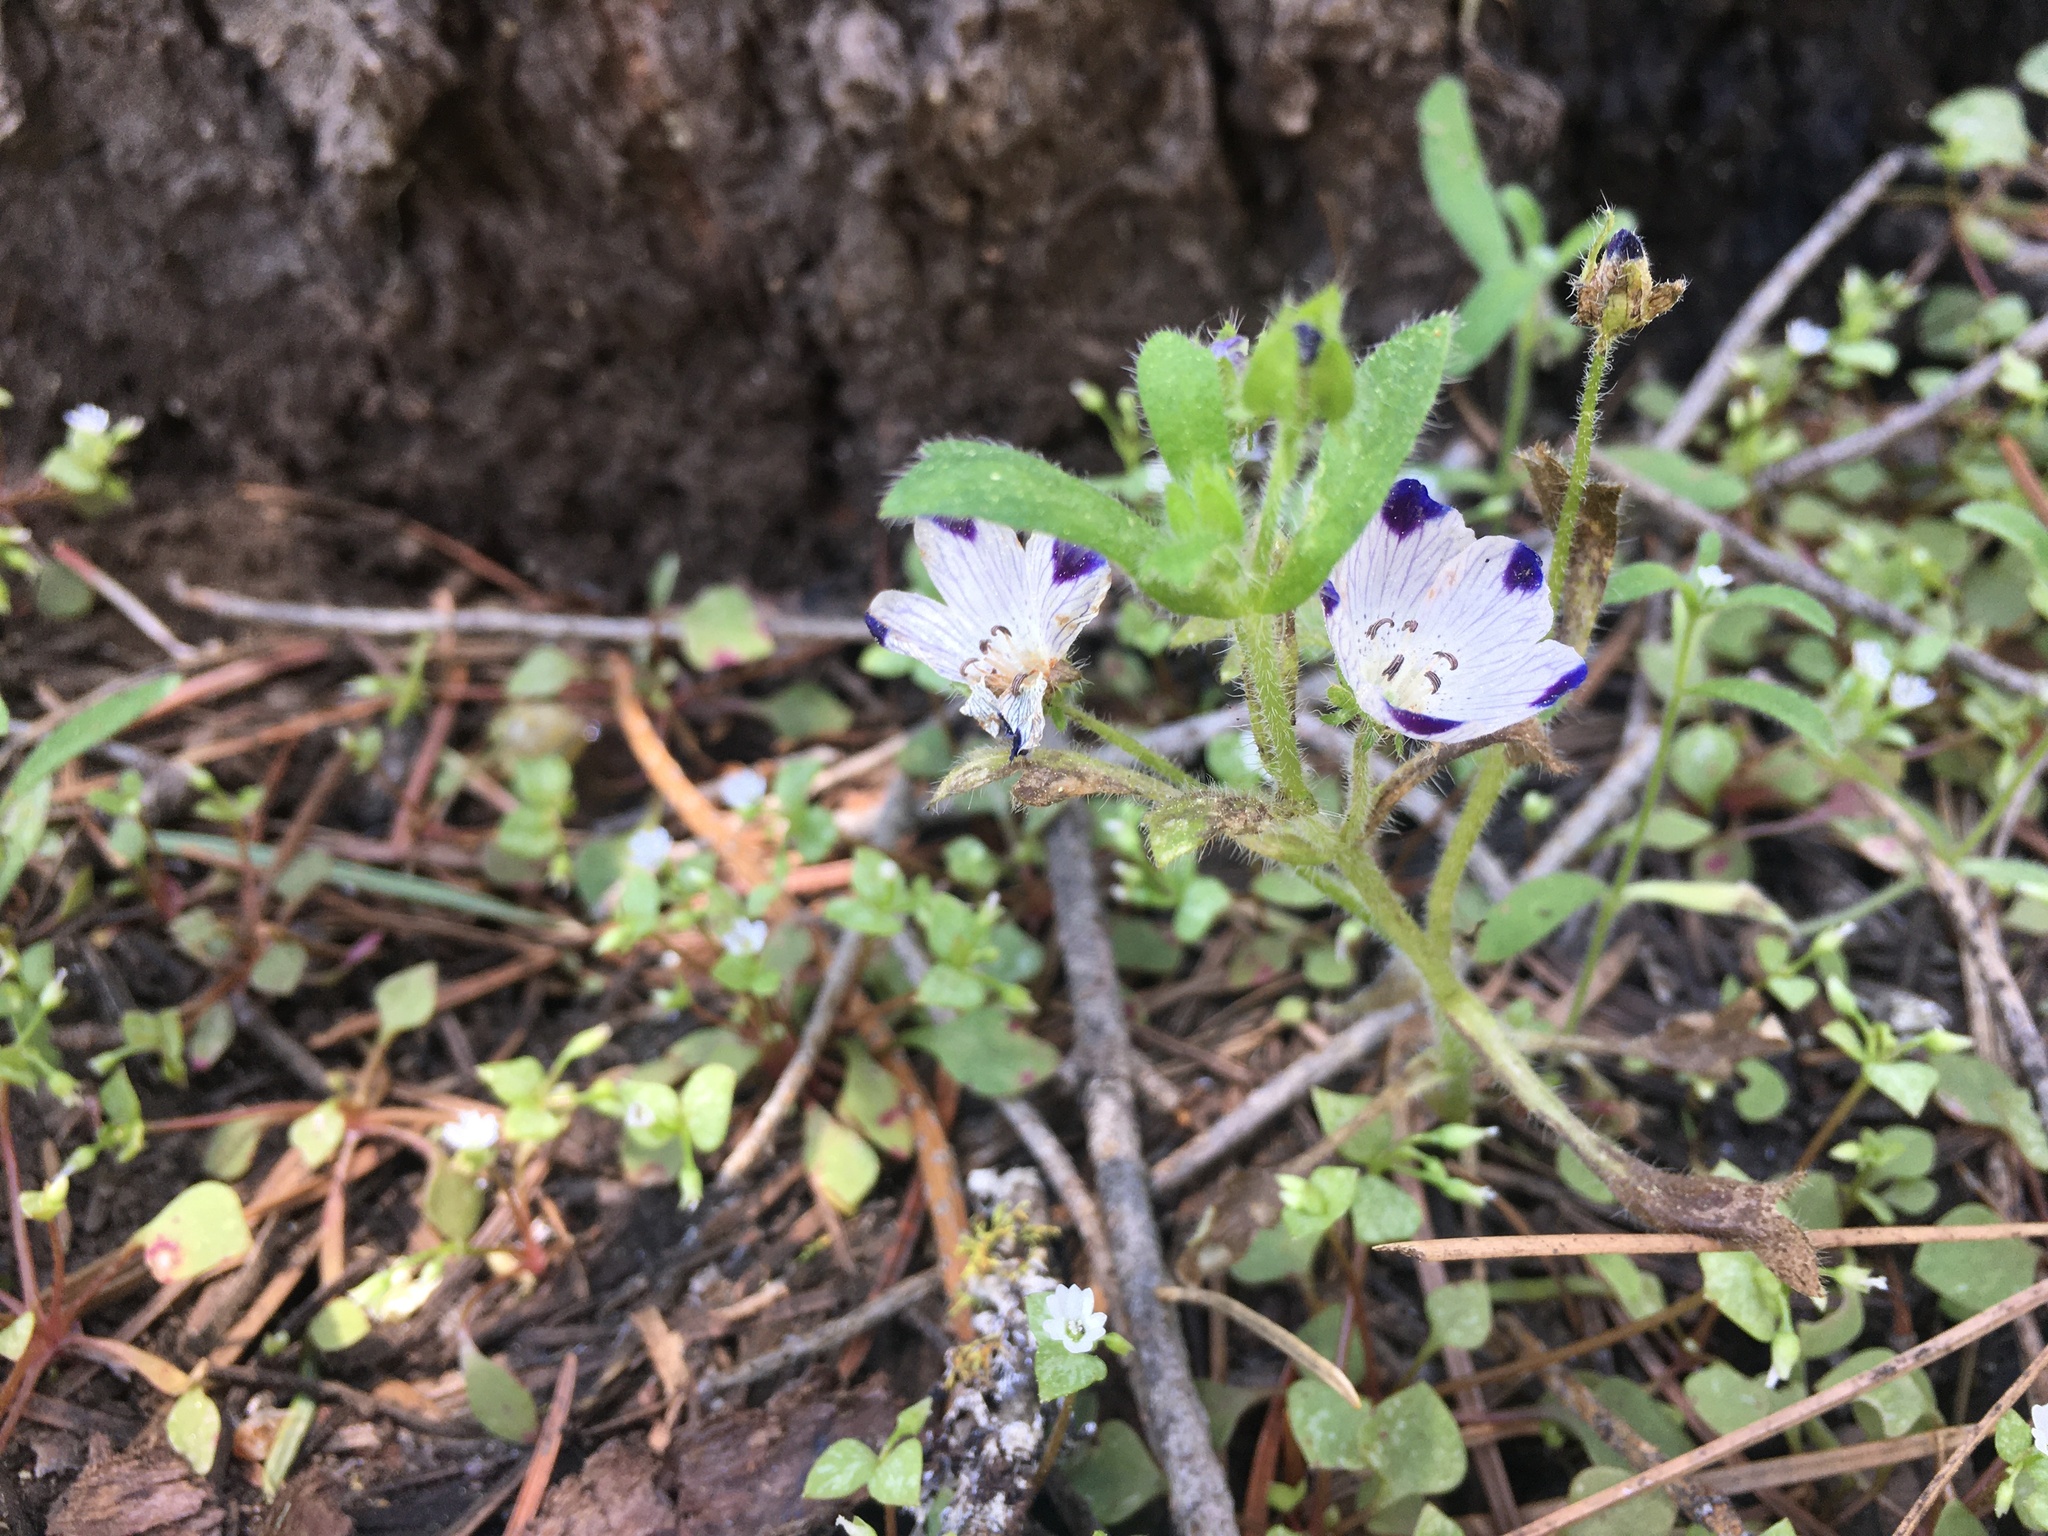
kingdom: Plantae
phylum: Tracheophyta
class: Magnoliopsida
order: Boraginales
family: Hydrophyllaceae
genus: Nemophila
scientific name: Nemophila maculata
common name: Fivespot
